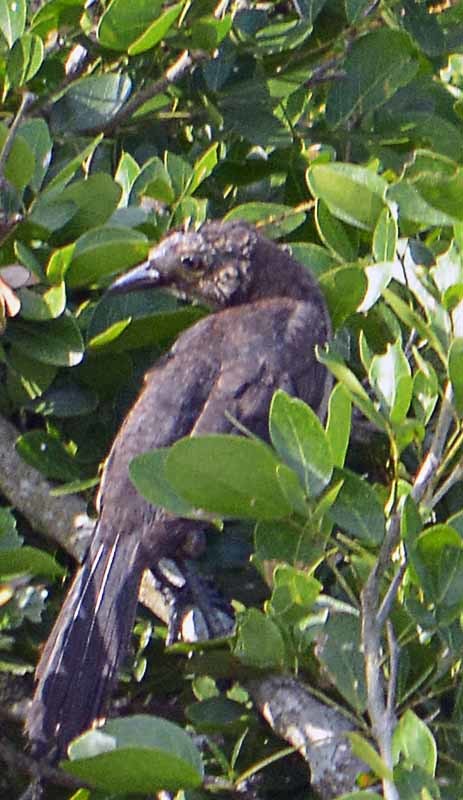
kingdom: Animalia
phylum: Chordata
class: Aves
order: Passeriformes
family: Icteridae
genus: Quiscalus
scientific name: Quiscalus mexicanus
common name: Great-tailed grackle
